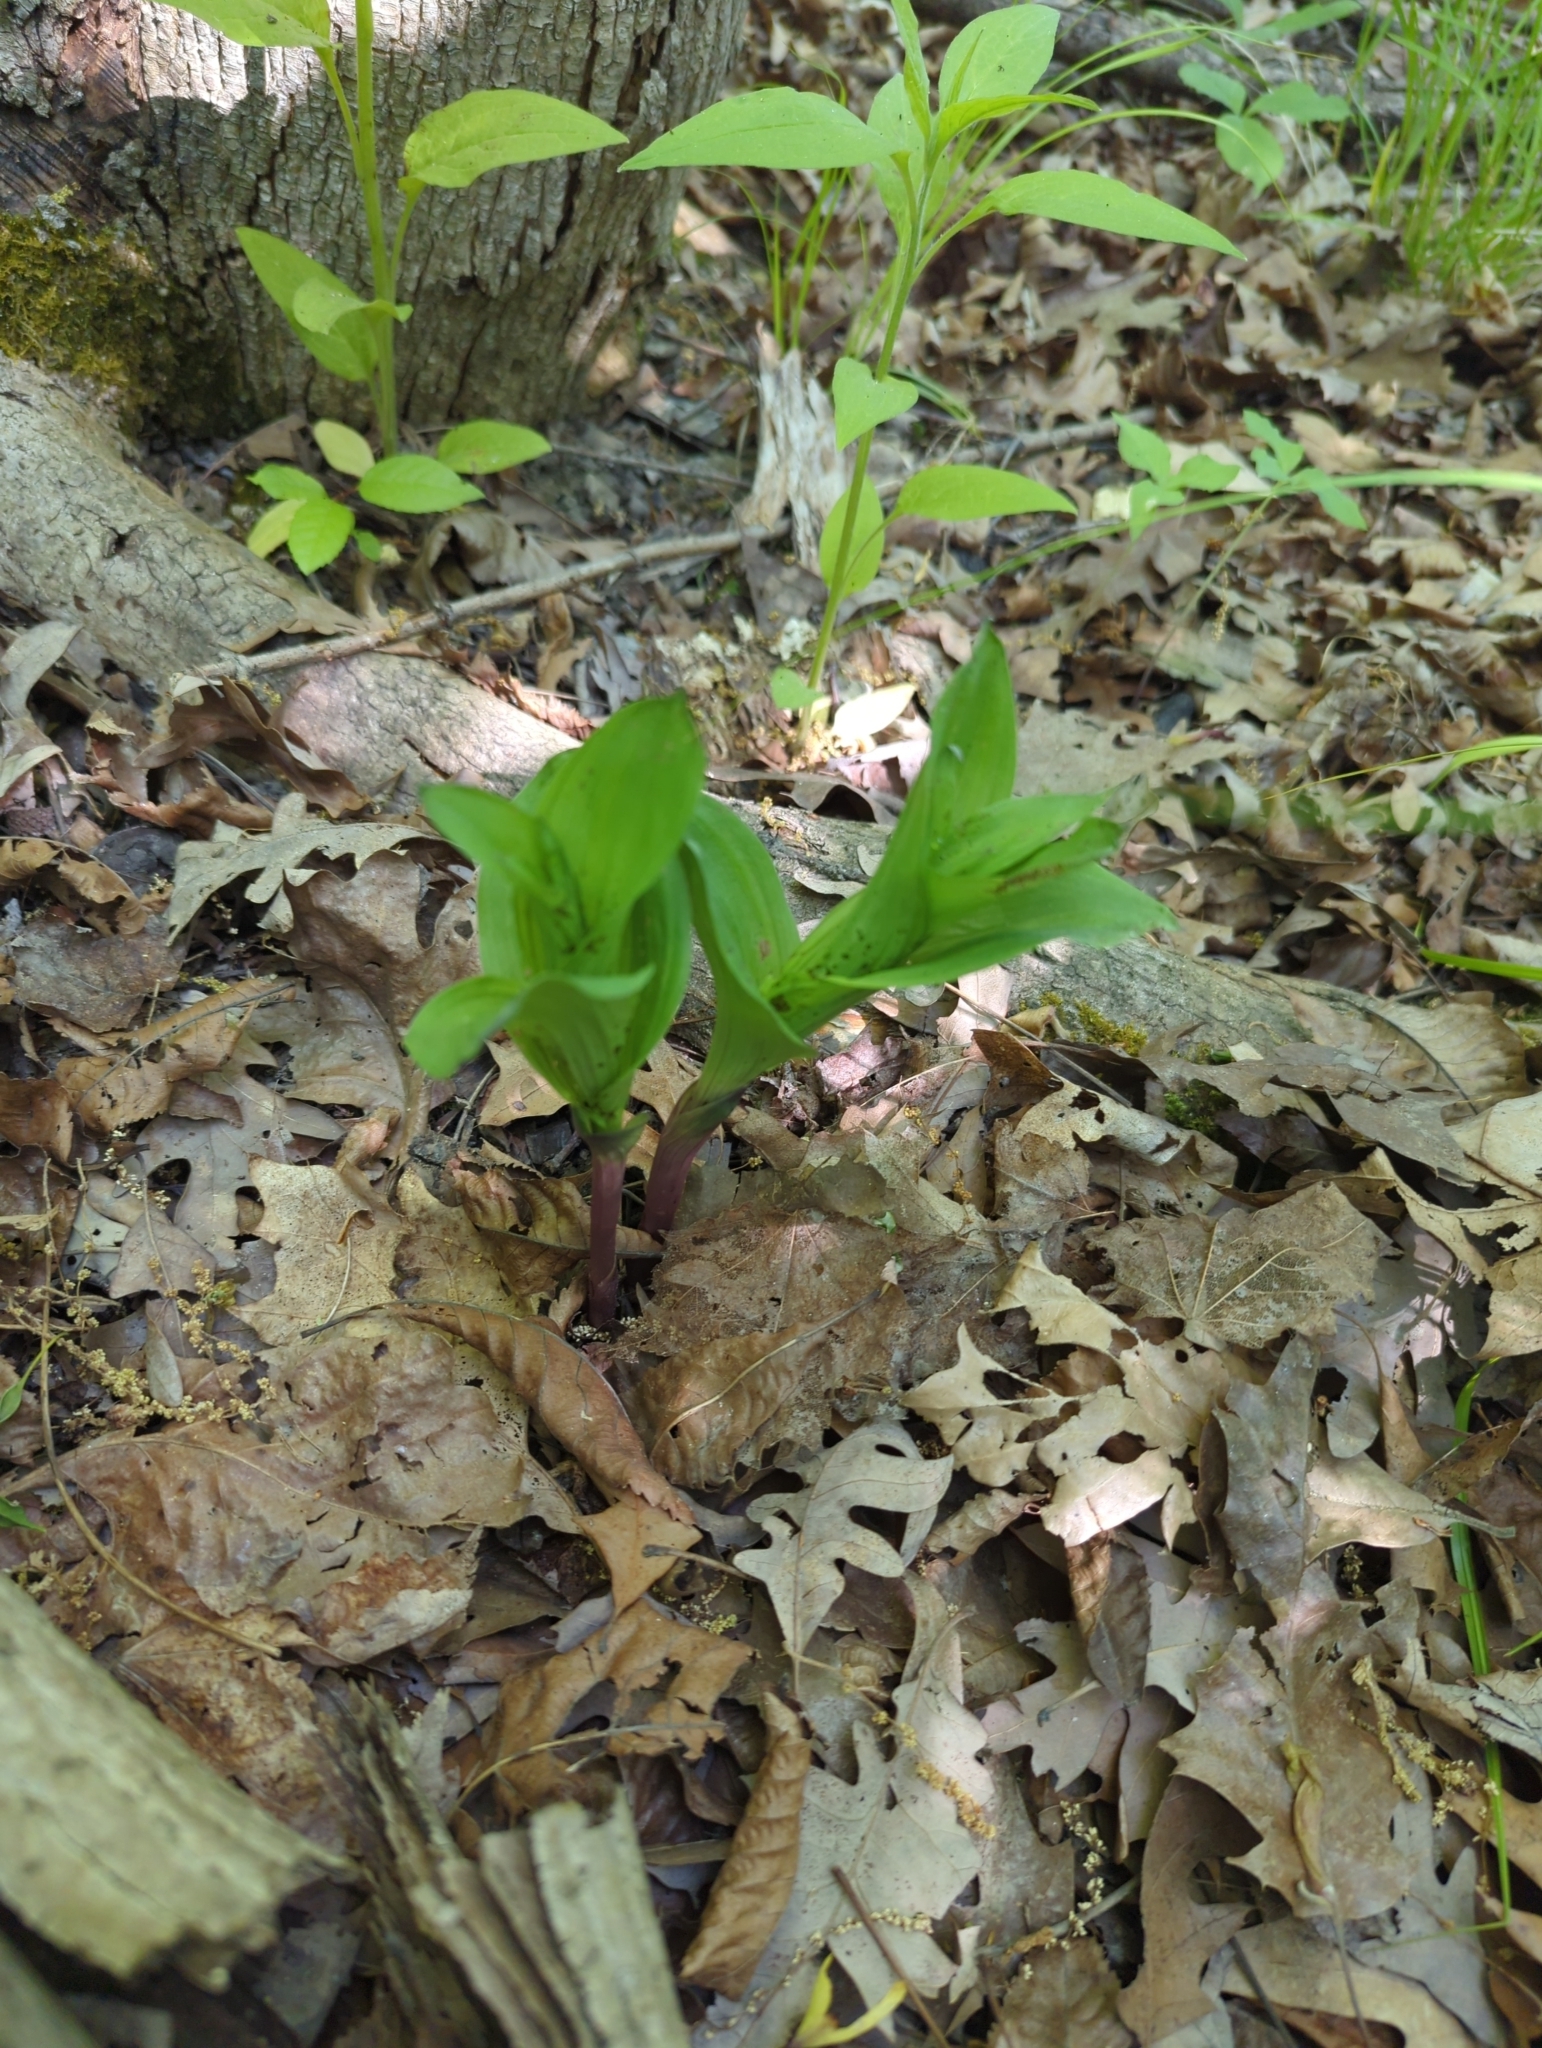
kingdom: Plantae
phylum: Tracheophyta
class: Liliopsida
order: Asparagales
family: Orchidaceae
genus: Epipactis
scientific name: Epipactis helleborine
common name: Broad-leaved helleborine
